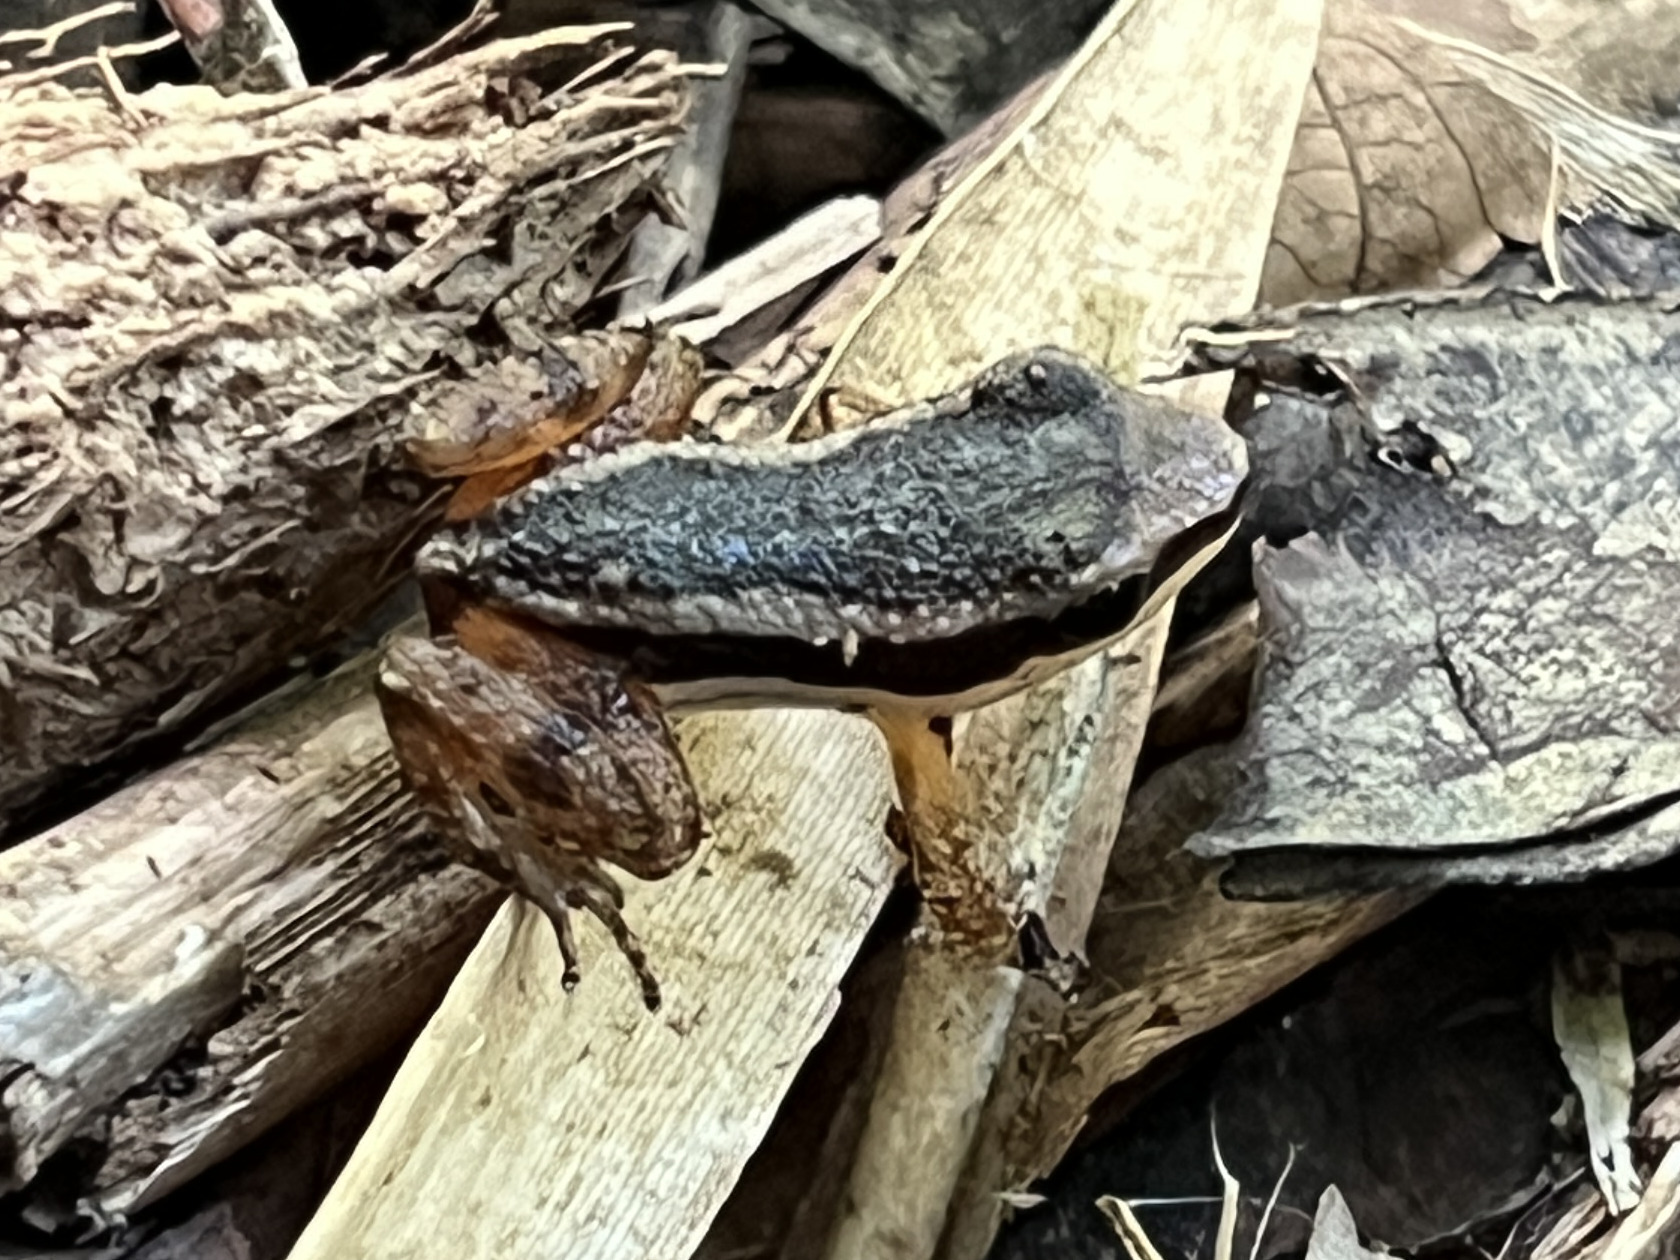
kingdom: Animalia
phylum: Chordata
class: Amphibia
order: Anura
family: Dendrobatidae
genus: Silverstoneia
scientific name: Silverstoneia flotator
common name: Rainforest rocket frog
